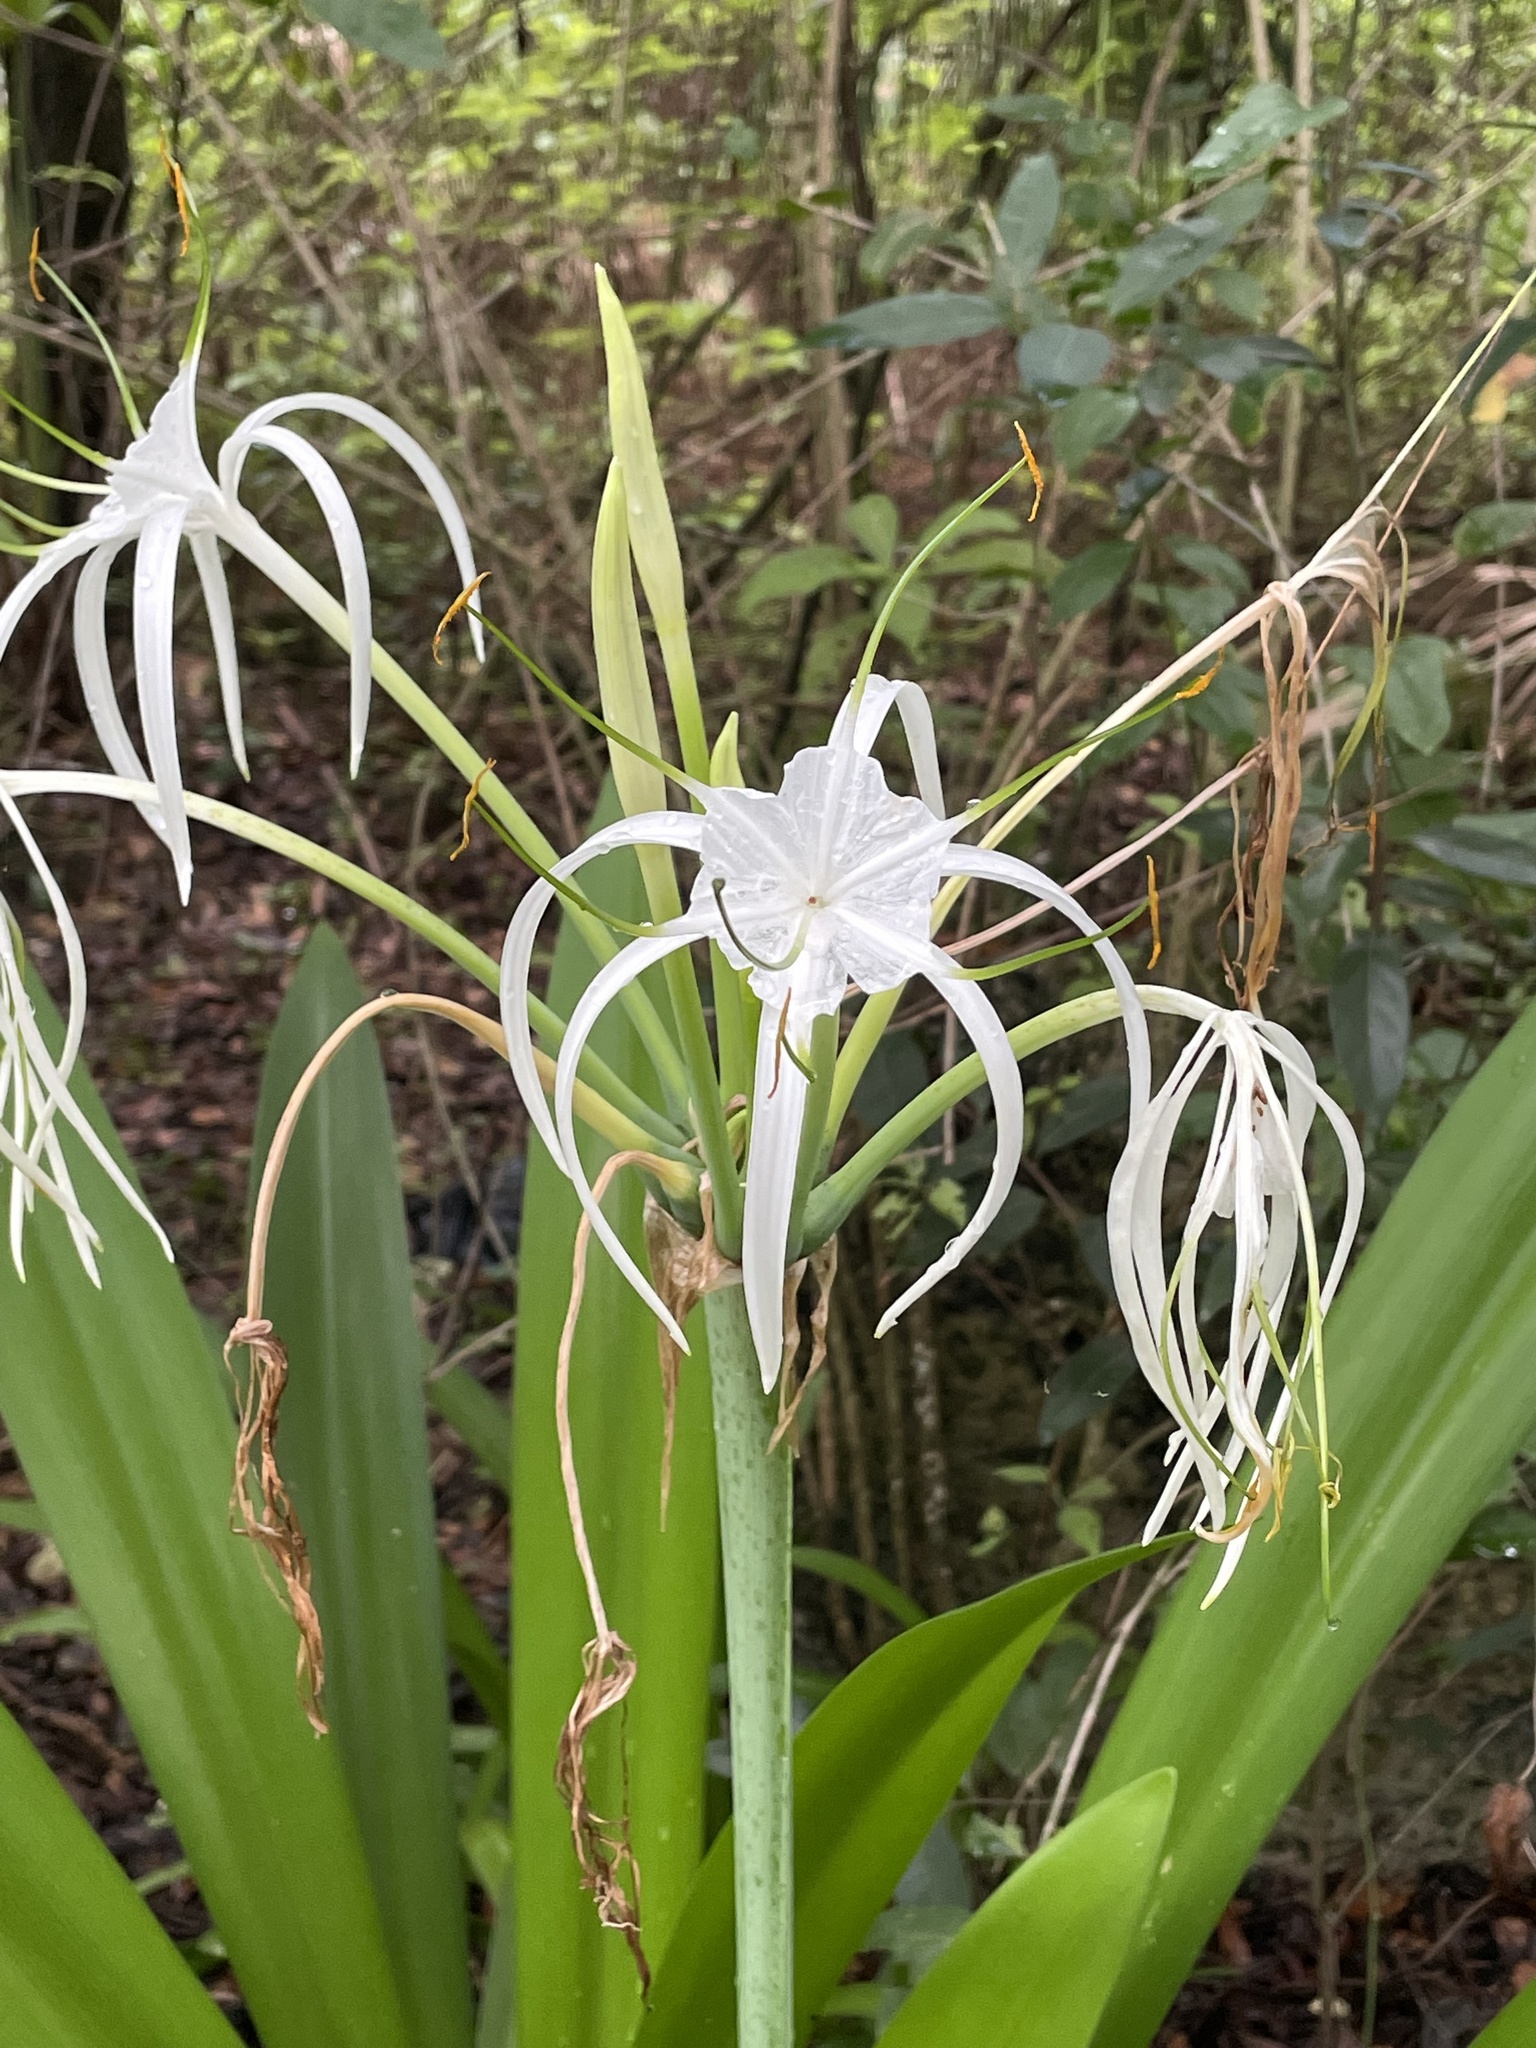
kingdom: Plantae
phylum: Tracheophyta
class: Liliopsida
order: Asparagales
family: Amaryllidaceae
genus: Hymenocallis
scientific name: Hymenocallis latifolia
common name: Cayman islands spider-lily
